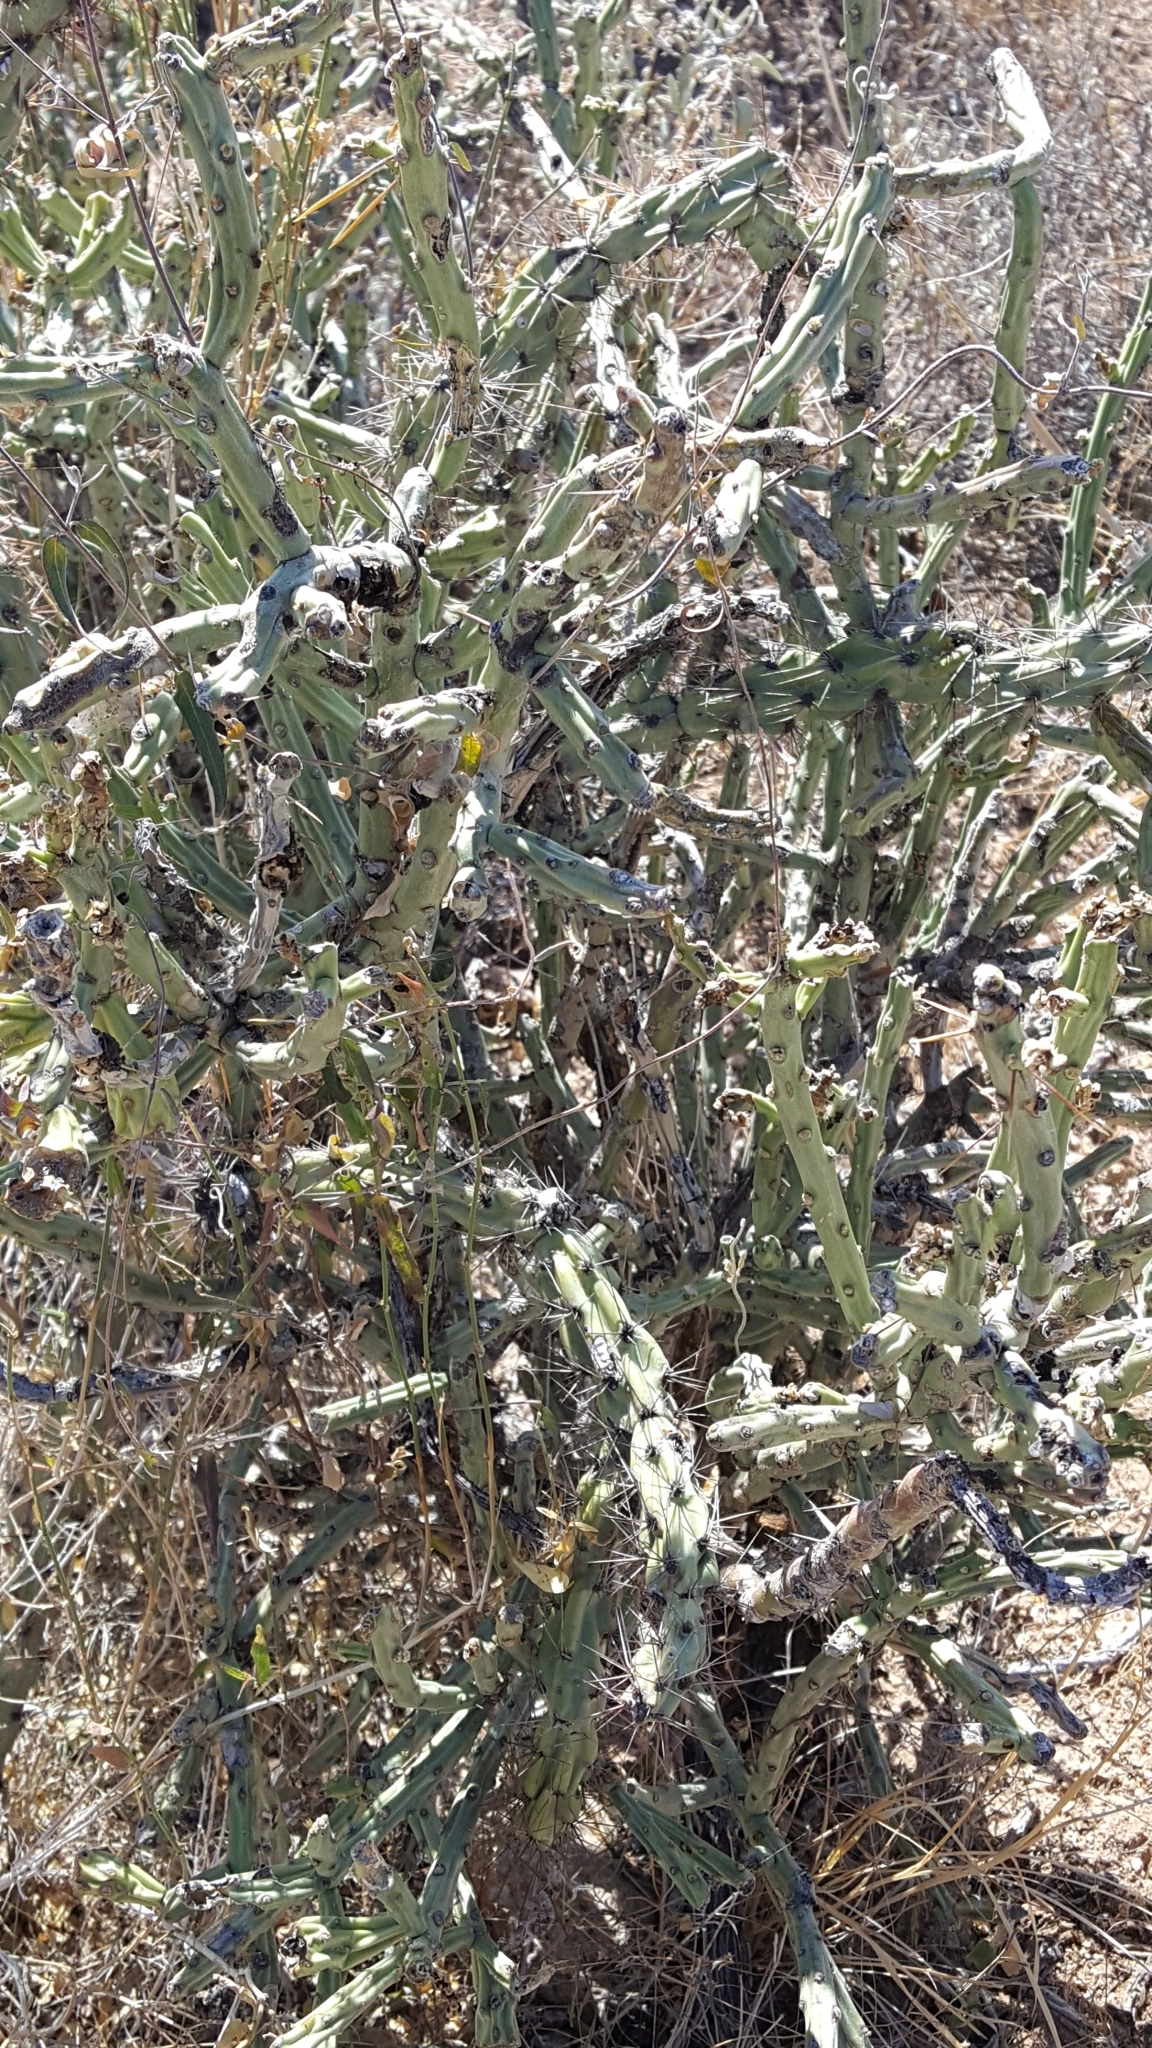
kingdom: Plantae
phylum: Tracheophyta
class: Magnoliopsida
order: Caryophyllales
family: Cactaceae
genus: Cylindropuntia
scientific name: Cylindropuntia arbuscula
